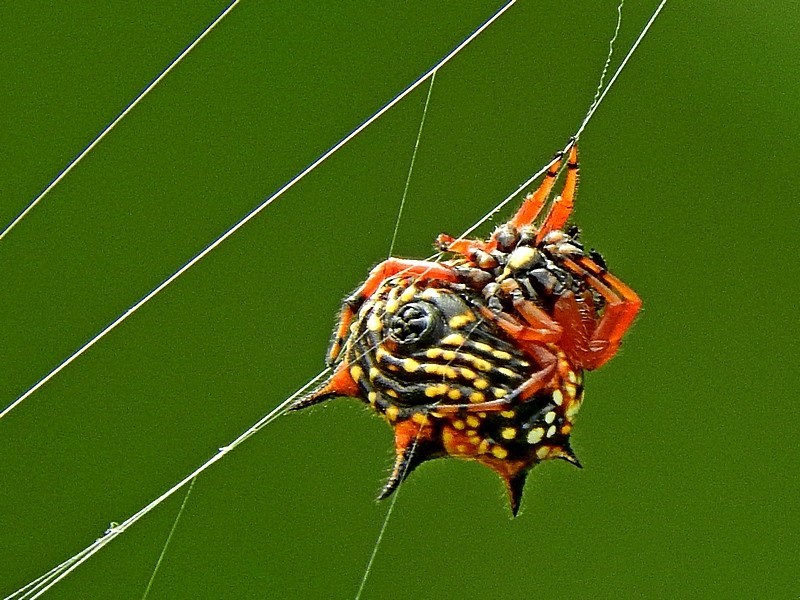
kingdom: Animalia
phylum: Arthropoda
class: Arachnida
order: Araneae
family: Araneidae
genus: Austracantha
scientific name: Austracantha minax
